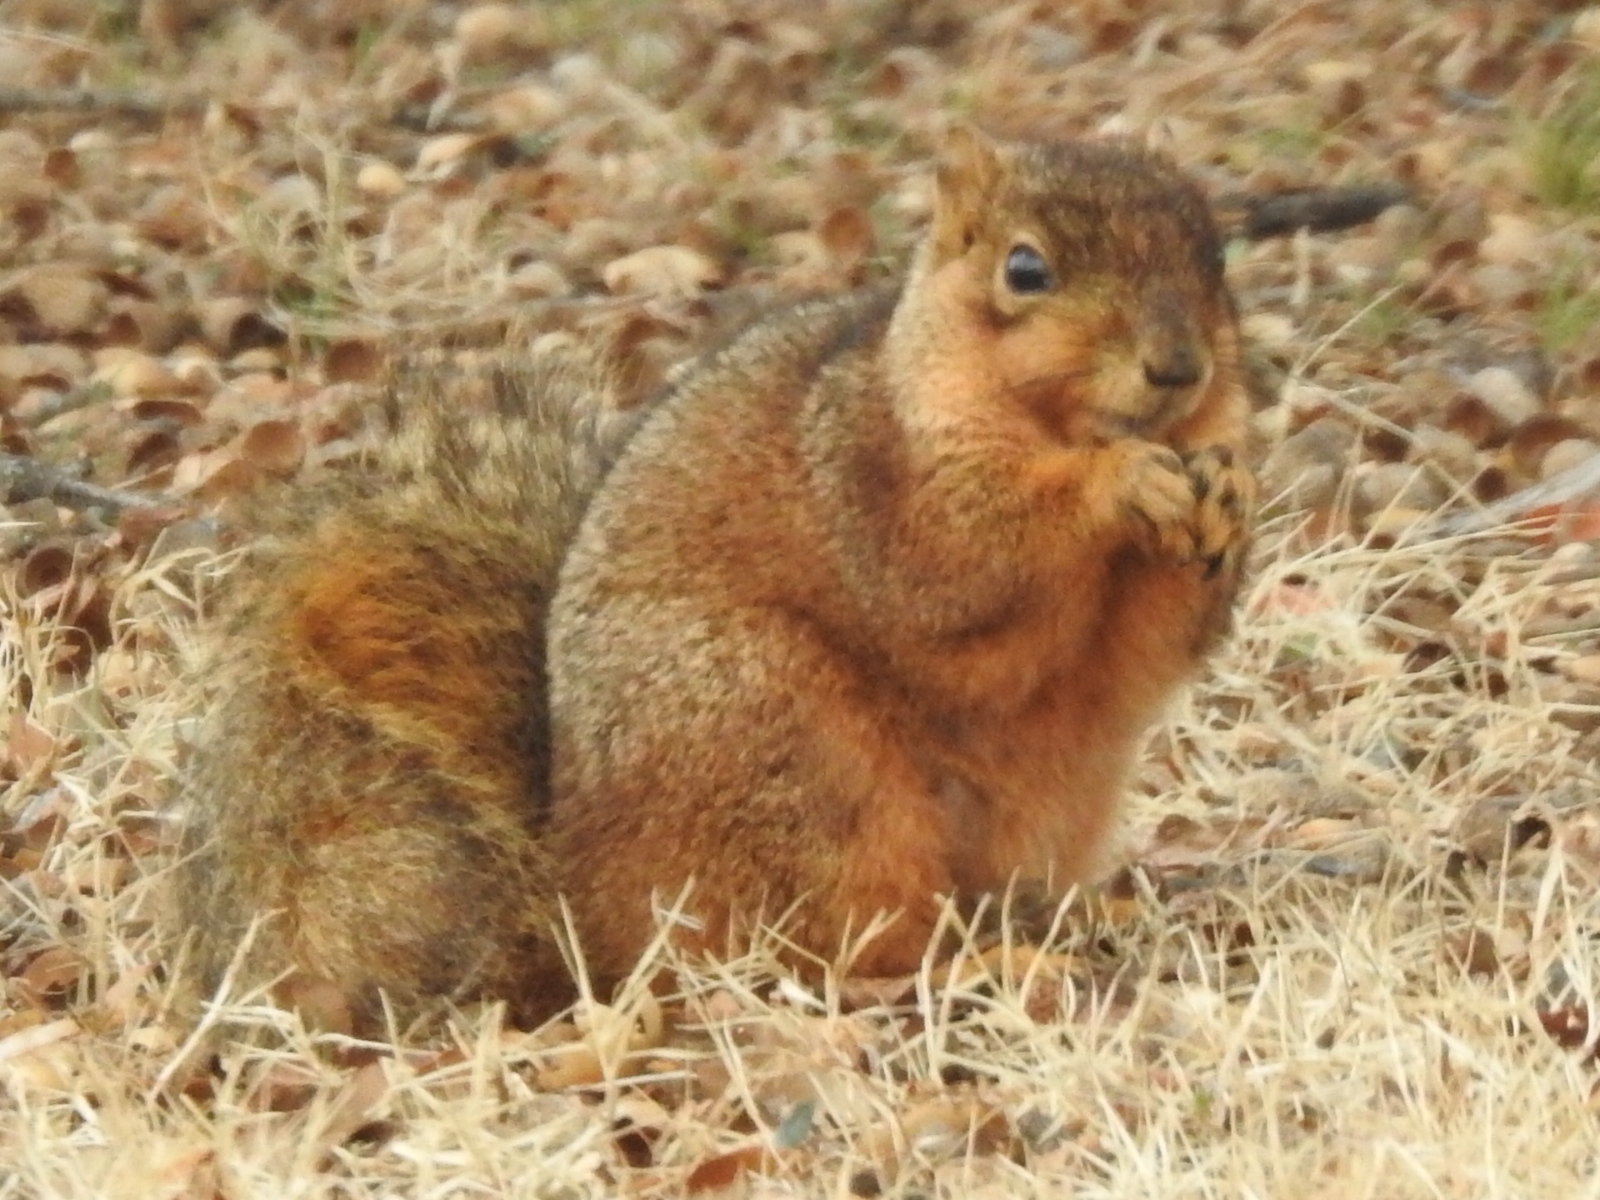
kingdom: Animalia
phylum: Chordata
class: Mammalia
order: Rodentia
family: Sciuridae
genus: Sciurus
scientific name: Sciurus niger
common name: Fox squirrel
